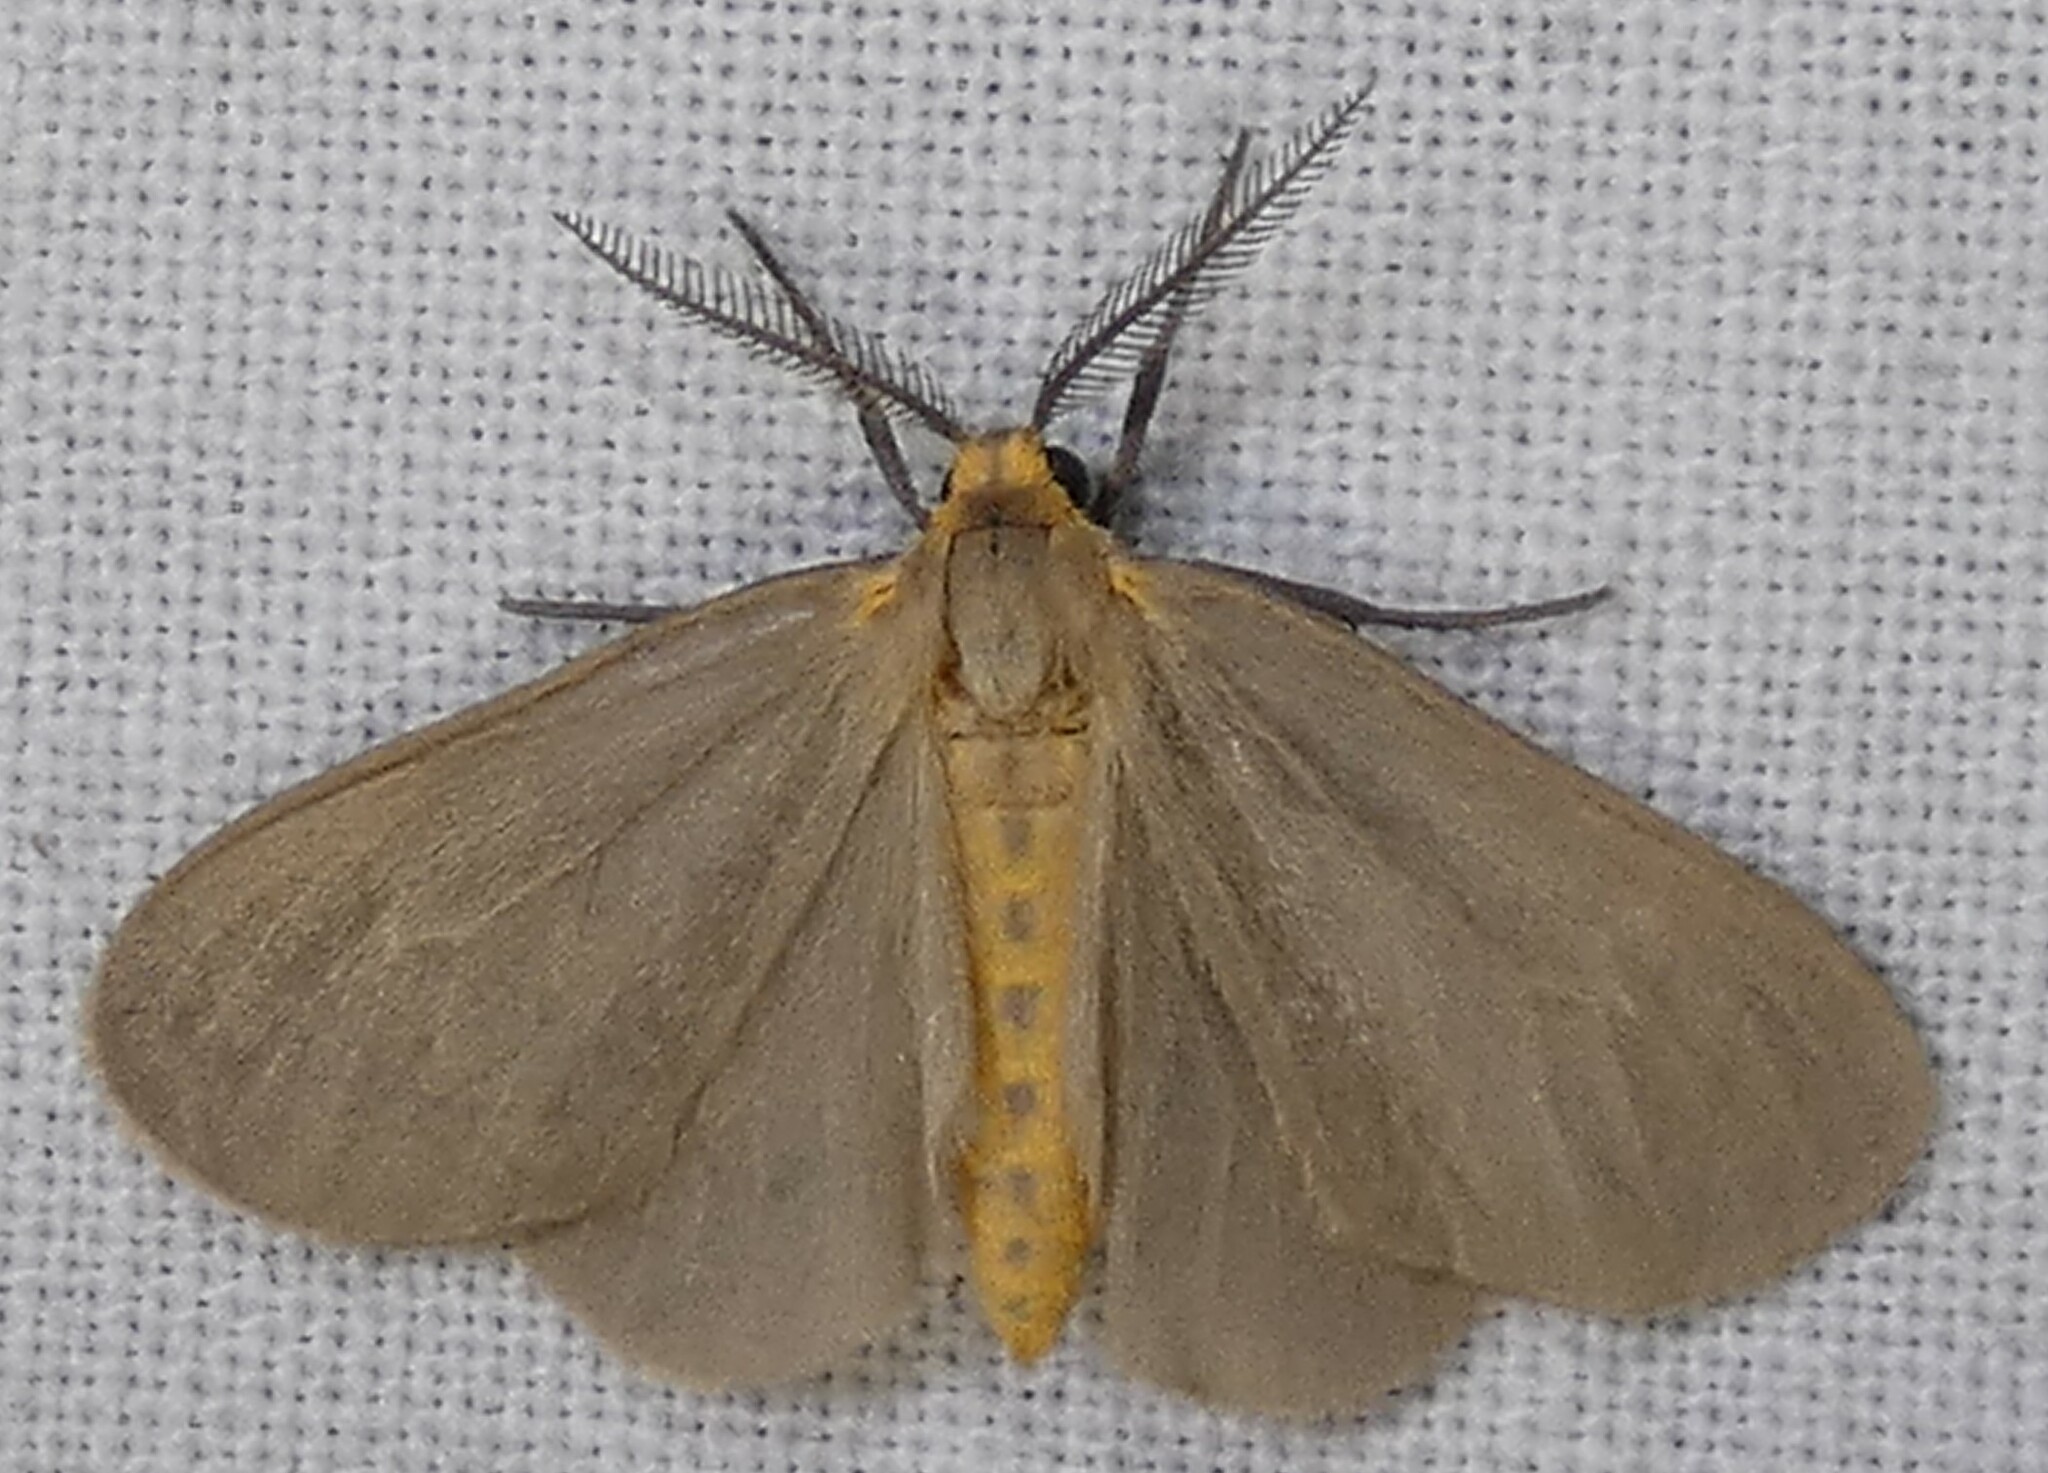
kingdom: Animalia
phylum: Arthropoda
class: Insecta
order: Lepidoptera
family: Erebidae
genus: Pagara
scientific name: Pagara simplex
